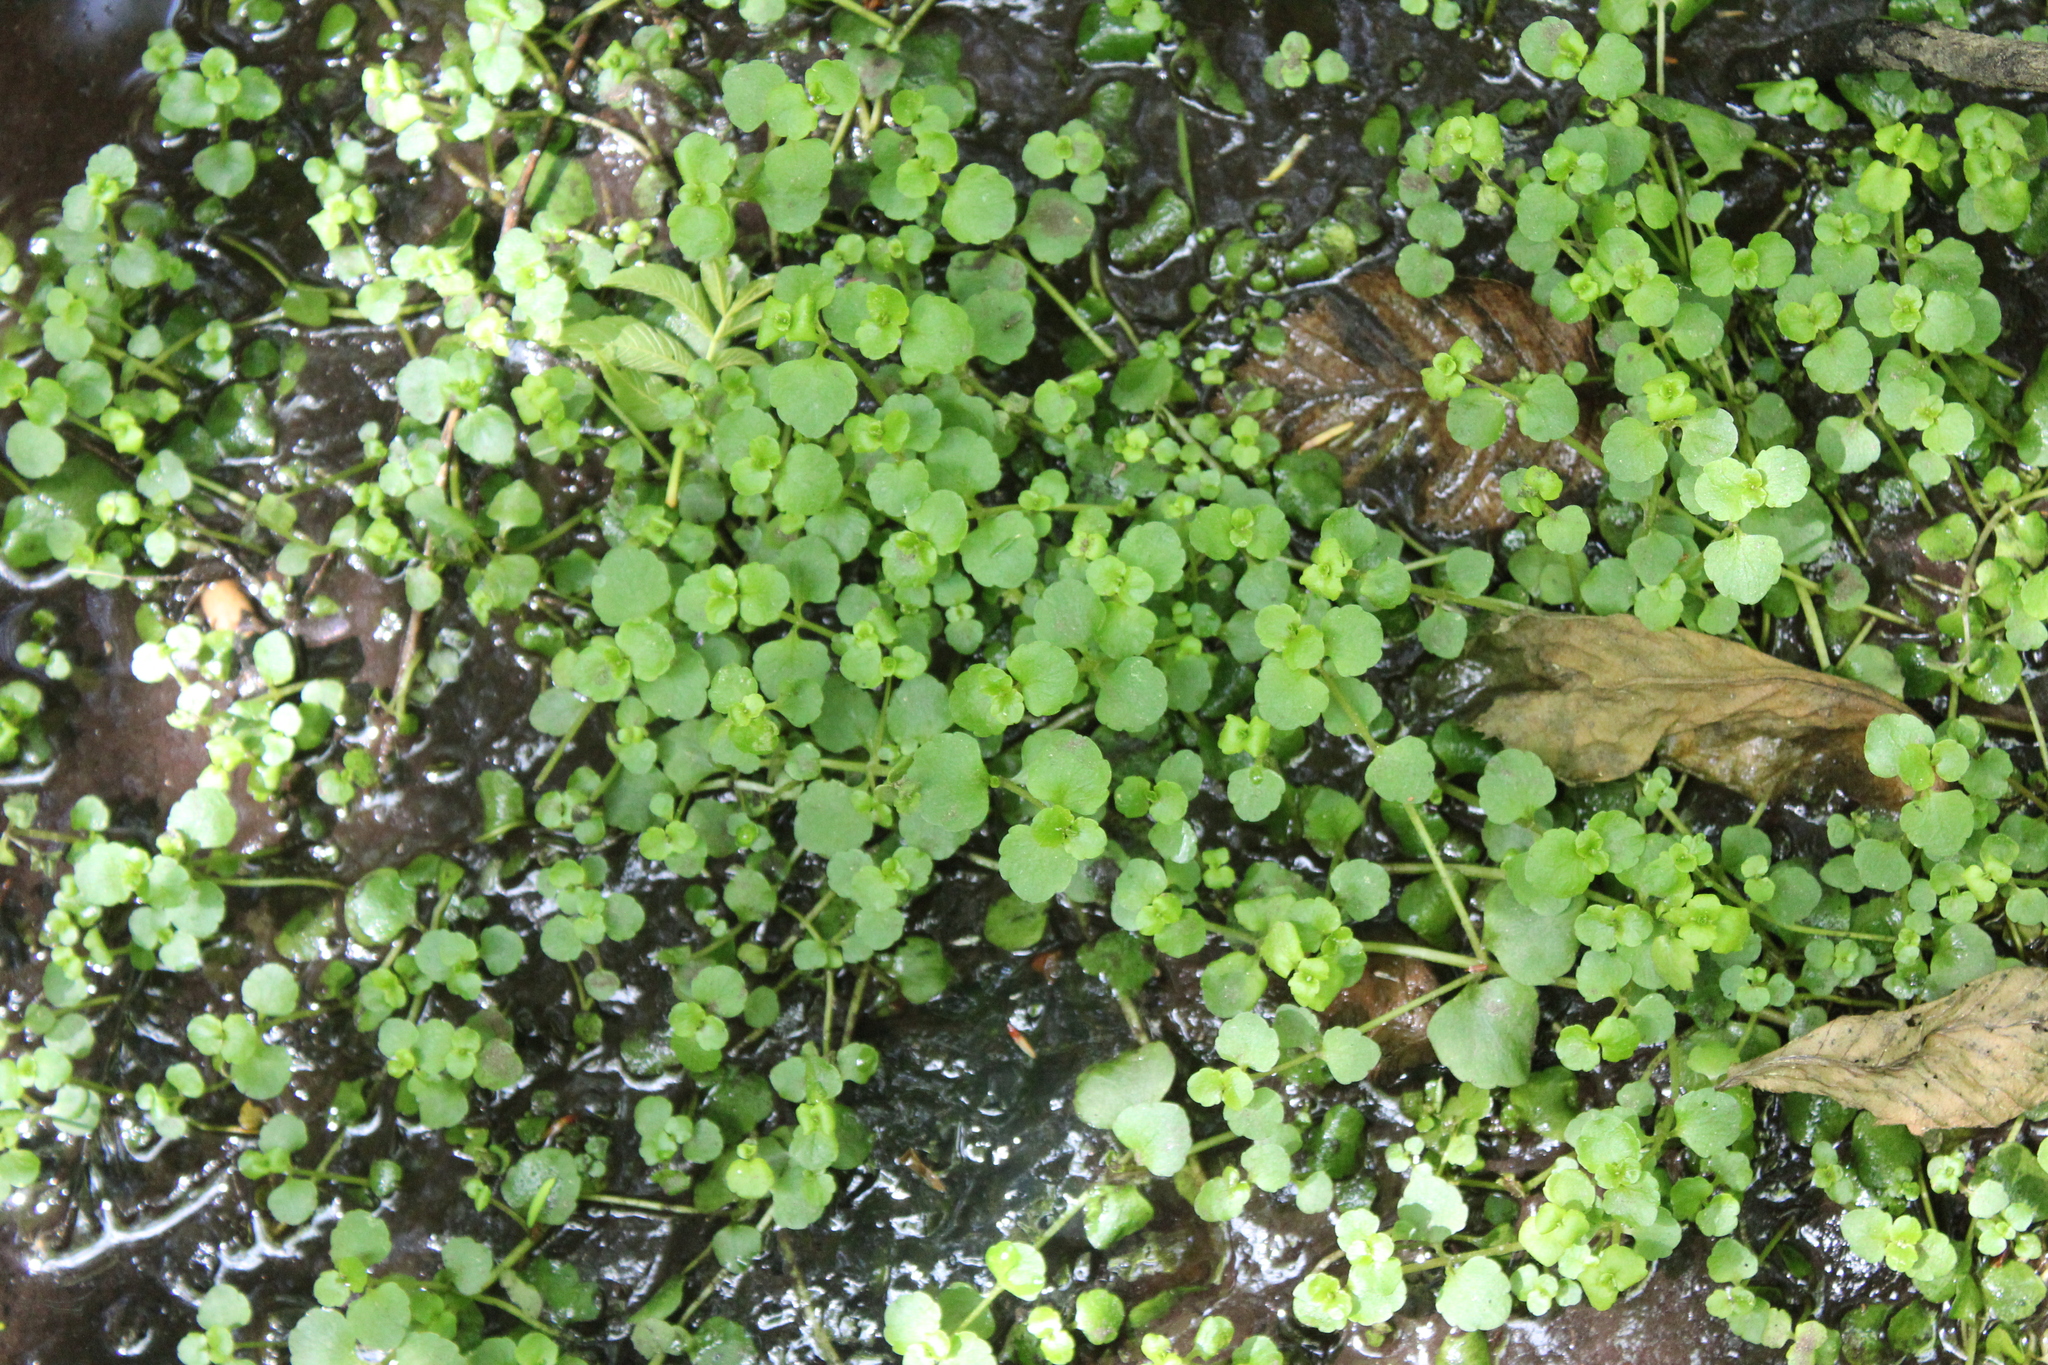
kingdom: Plantae
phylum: Tracheophyta
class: Magnoliopsida
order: Saxifragales
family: Saxifragaceae
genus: Chrysosplenium
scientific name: Chrysosplenium americanum
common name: American golden-saxifrage
